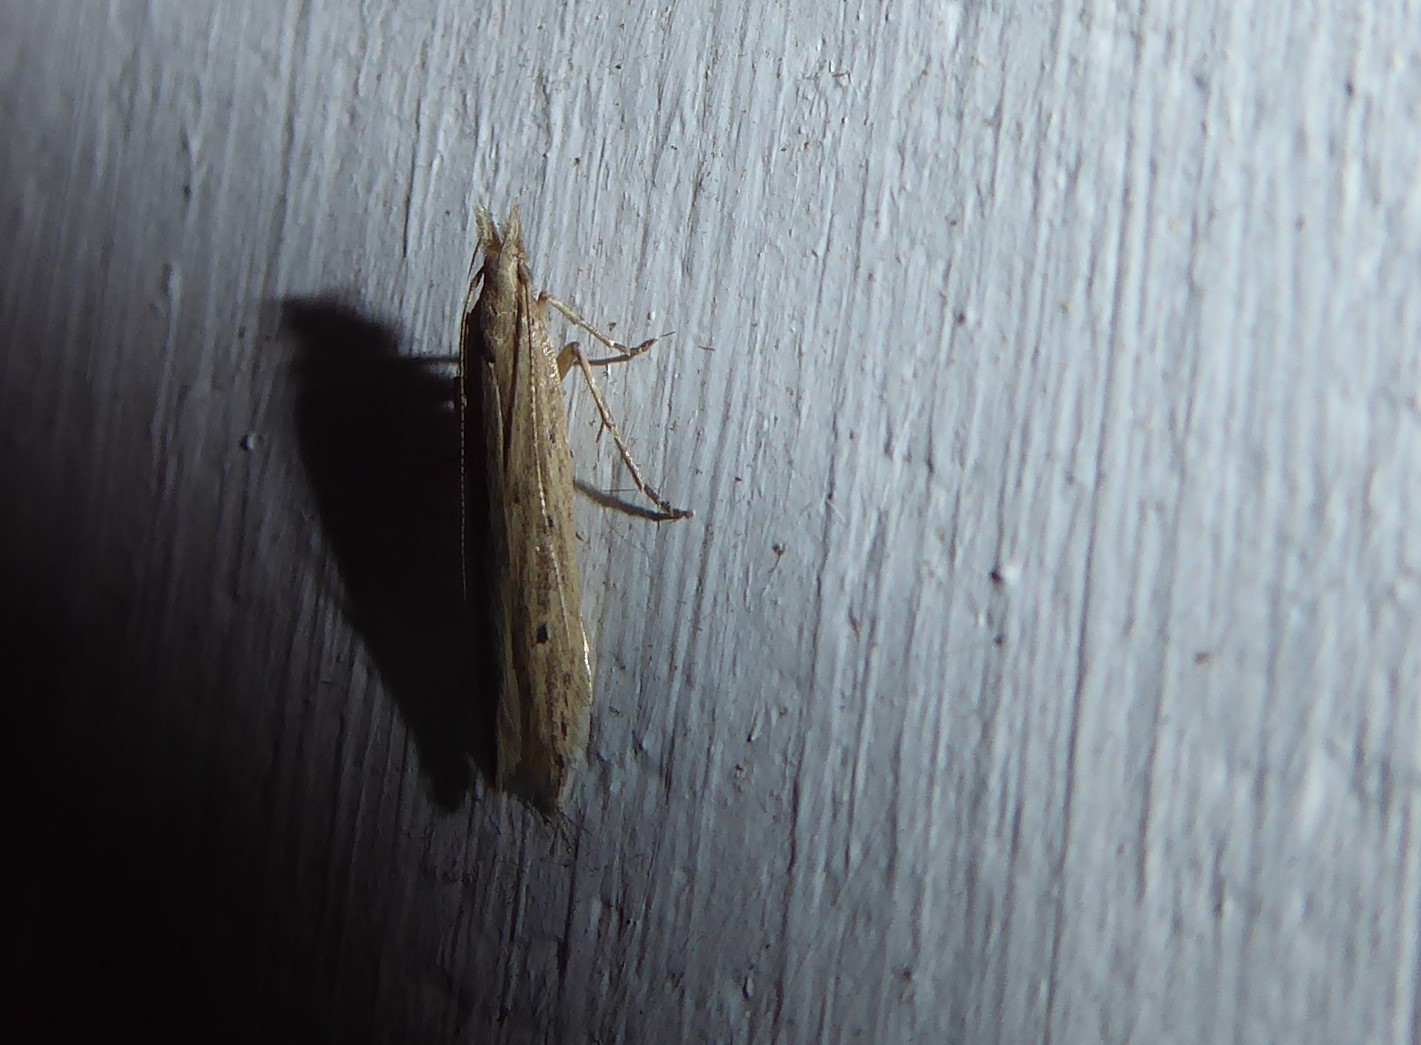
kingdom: Animalia
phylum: Arthropoda
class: Insecta
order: Lepidoptera
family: Gelechiidae
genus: Epiphthora
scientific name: Epiphthora calamogonus
